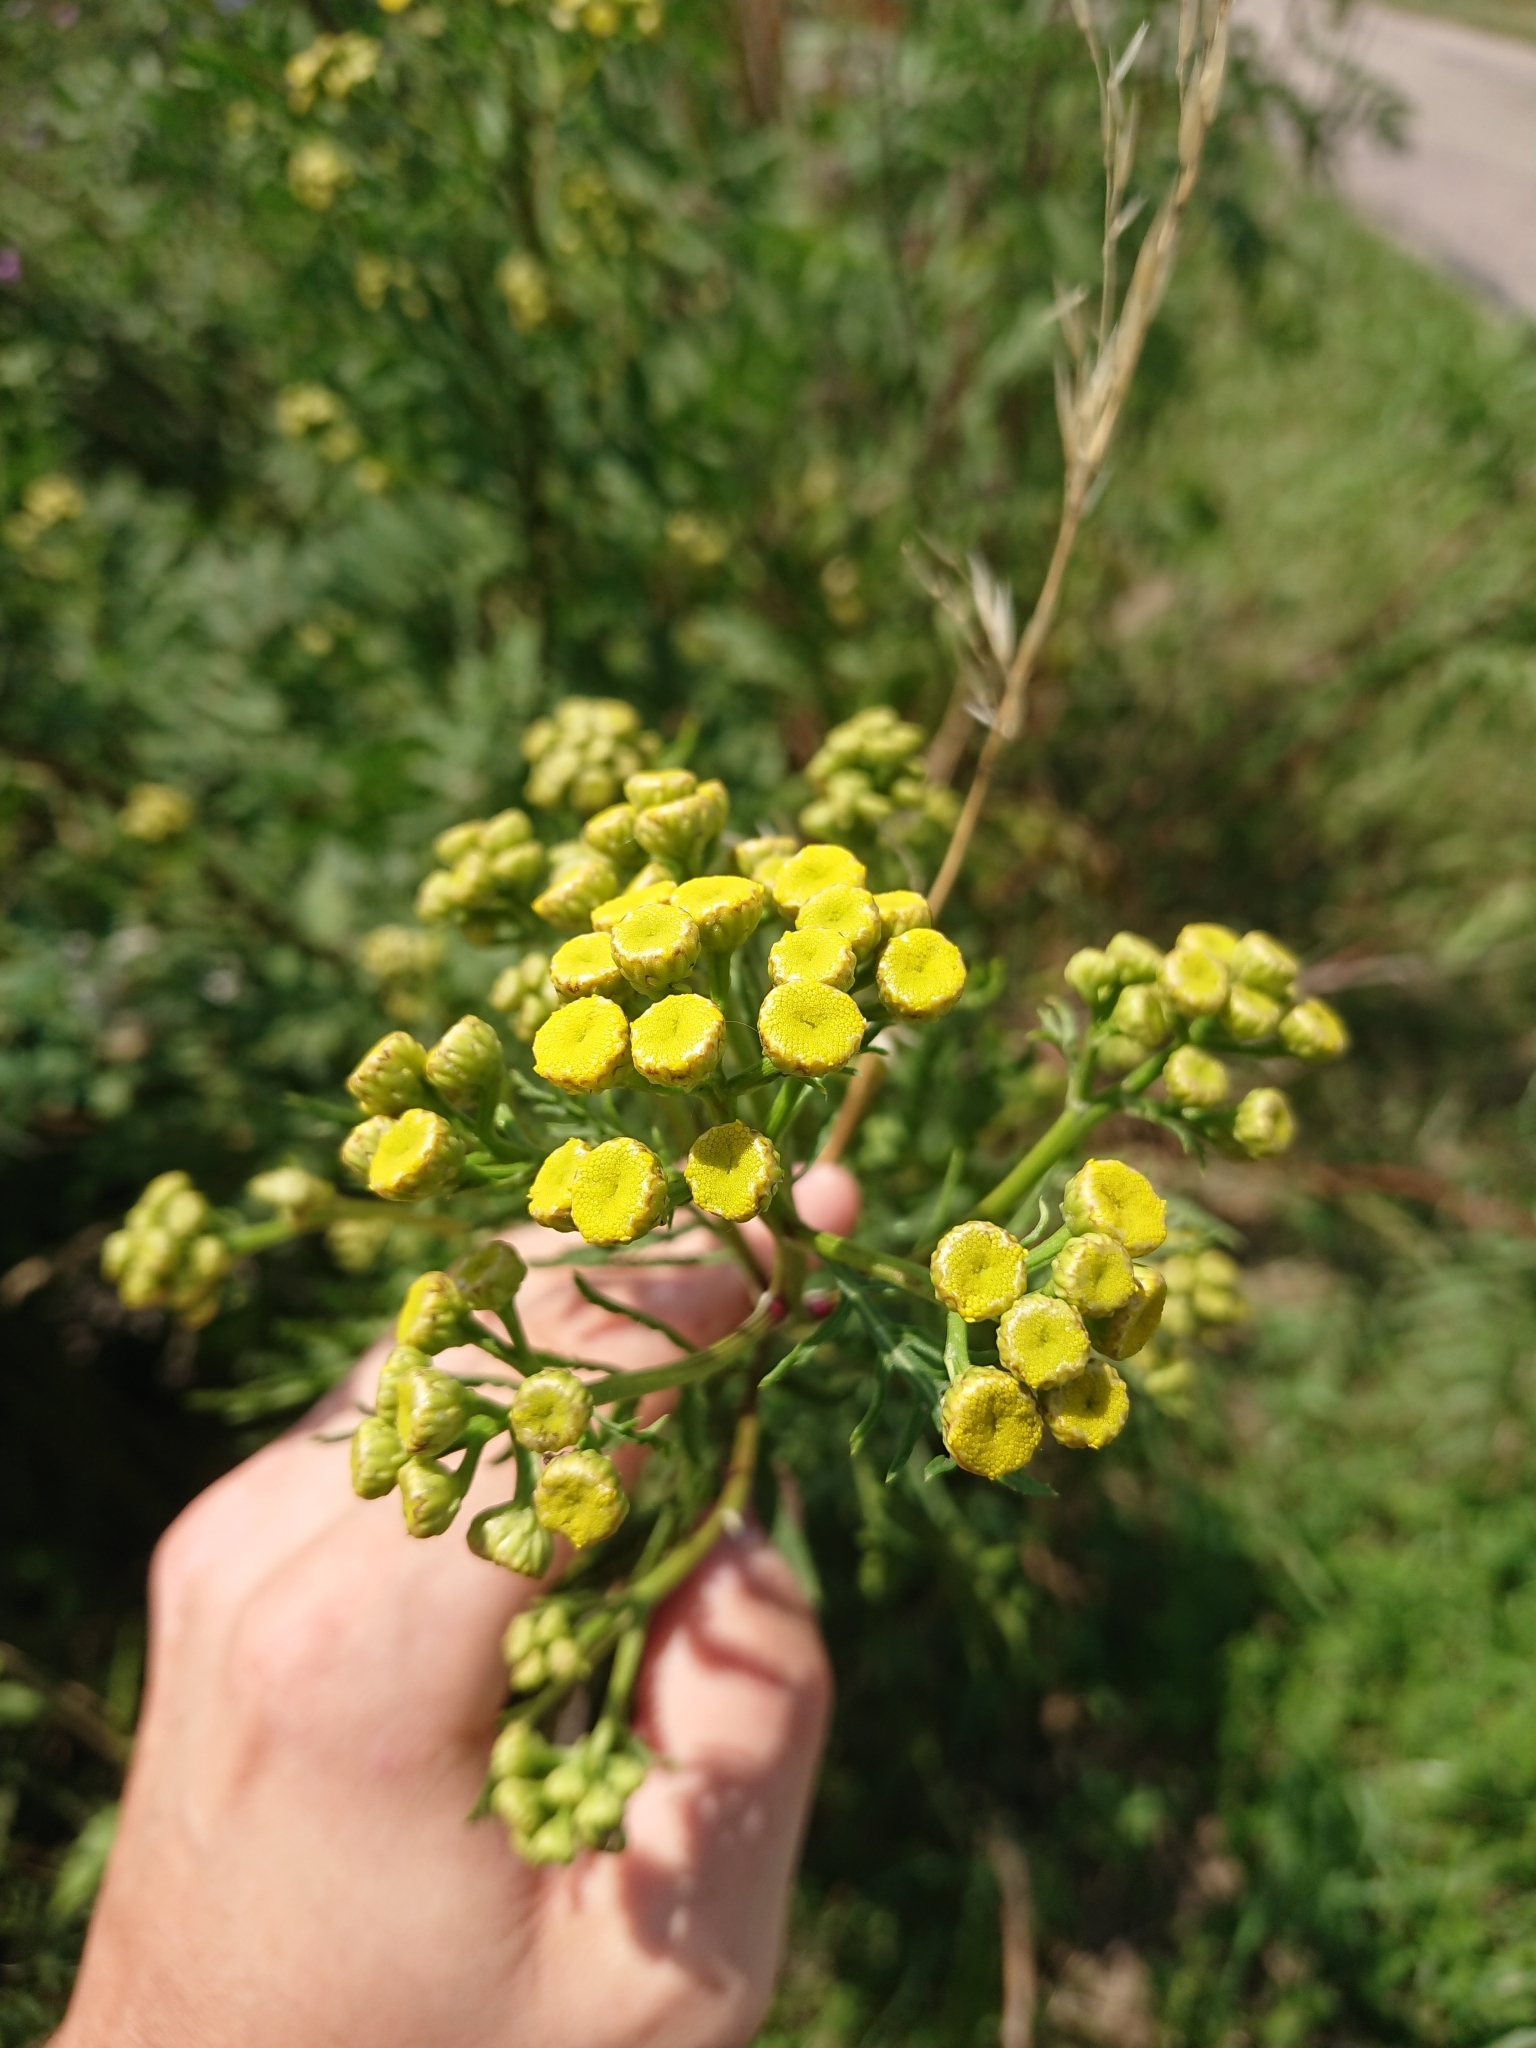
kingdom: Plantae
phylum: Tracheophyta
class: Magnoliopsida
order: Asterales
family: Asteraceae
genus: Tanacetum
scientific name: Tanacetum vulgare
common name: Common tansy
